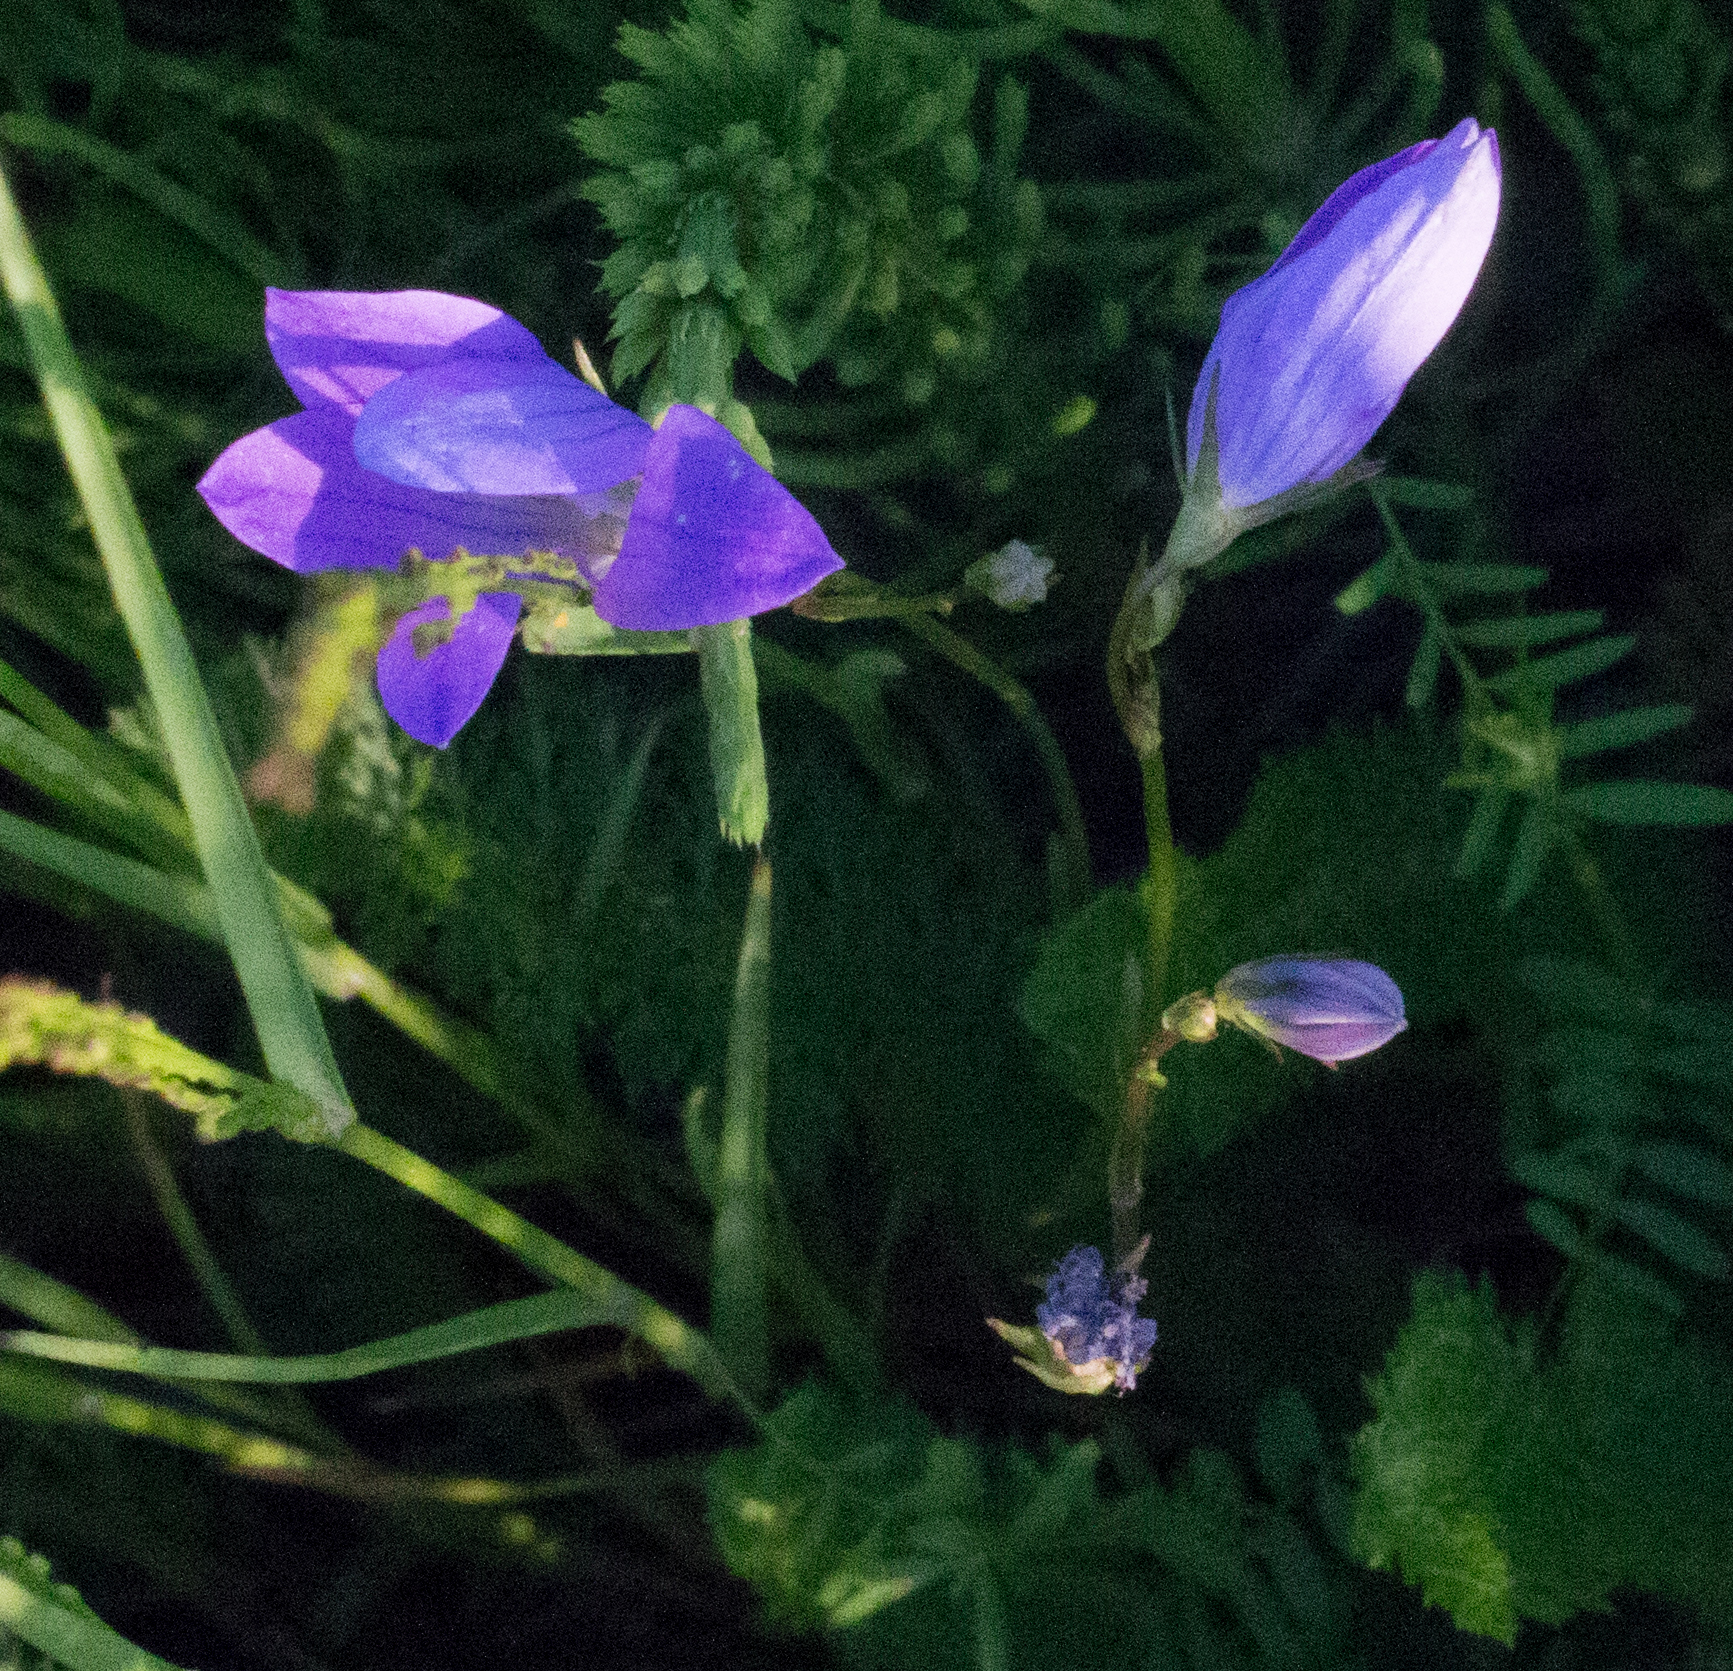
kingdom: Plantae
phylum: Tracheophyta
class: Magnoliopsida
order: Asterales
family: Campanulaceae
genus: Campanula
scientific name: Campanula patula
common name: Spreading bellflower
